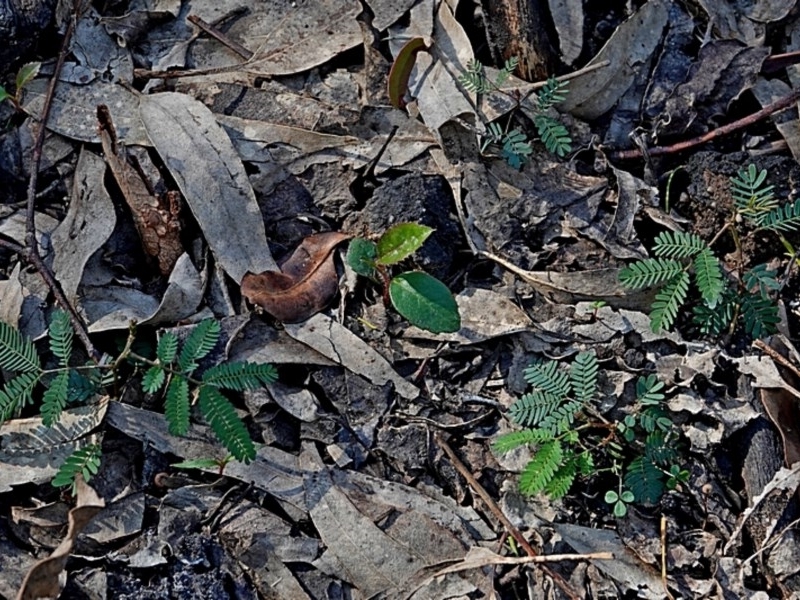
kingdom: Plantae
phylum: Tracheophyta
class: Magnoliopsida
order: Fabales
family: Fabaceae
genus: Acacia
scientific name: Acacia mearnsii
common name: Black wattle
